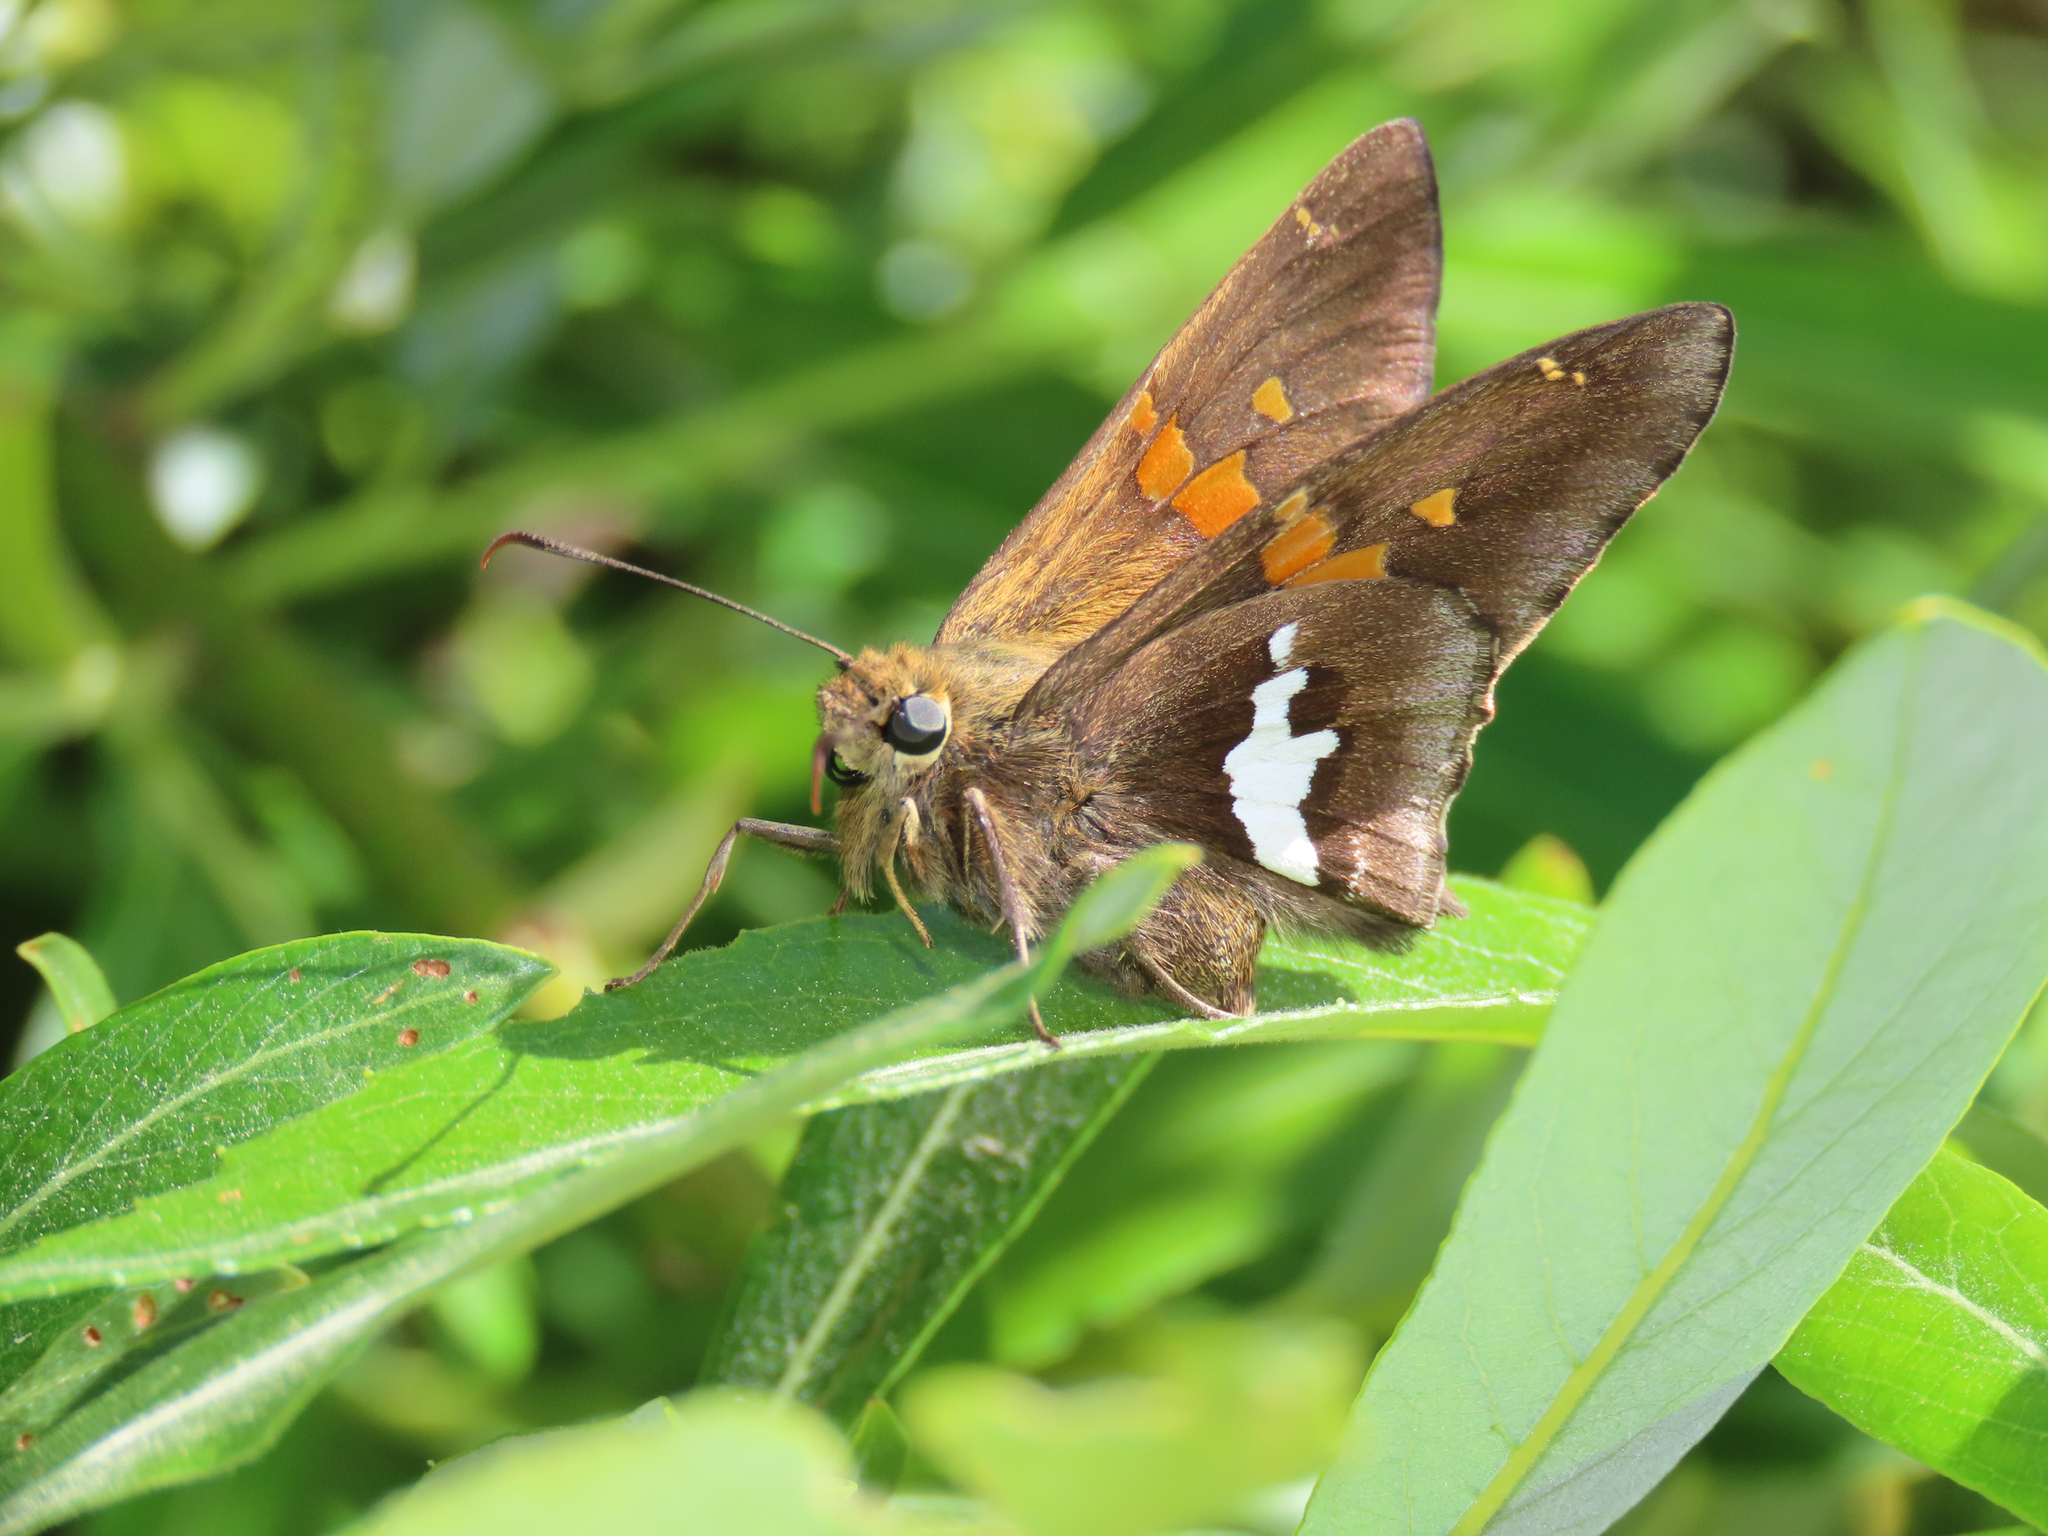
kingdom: Animalia
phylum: Arthropoda
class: Insecta
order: Lepidoptera
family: Hesperiidae
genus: Epargyreus
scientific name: Epargyreus clarus
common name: Silver-spotted skipper
